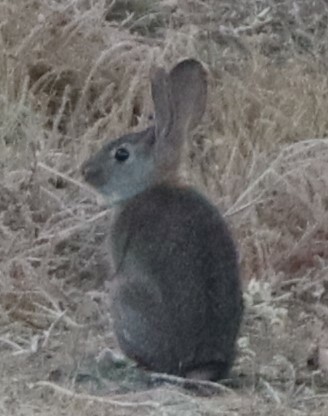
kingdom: Animalia
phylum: Chordata
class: Mammalia
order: Lagomorpha
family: Leporidae
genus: Sylvilagus
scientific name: Sylvilagus bachmani
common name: Brush rabbit
